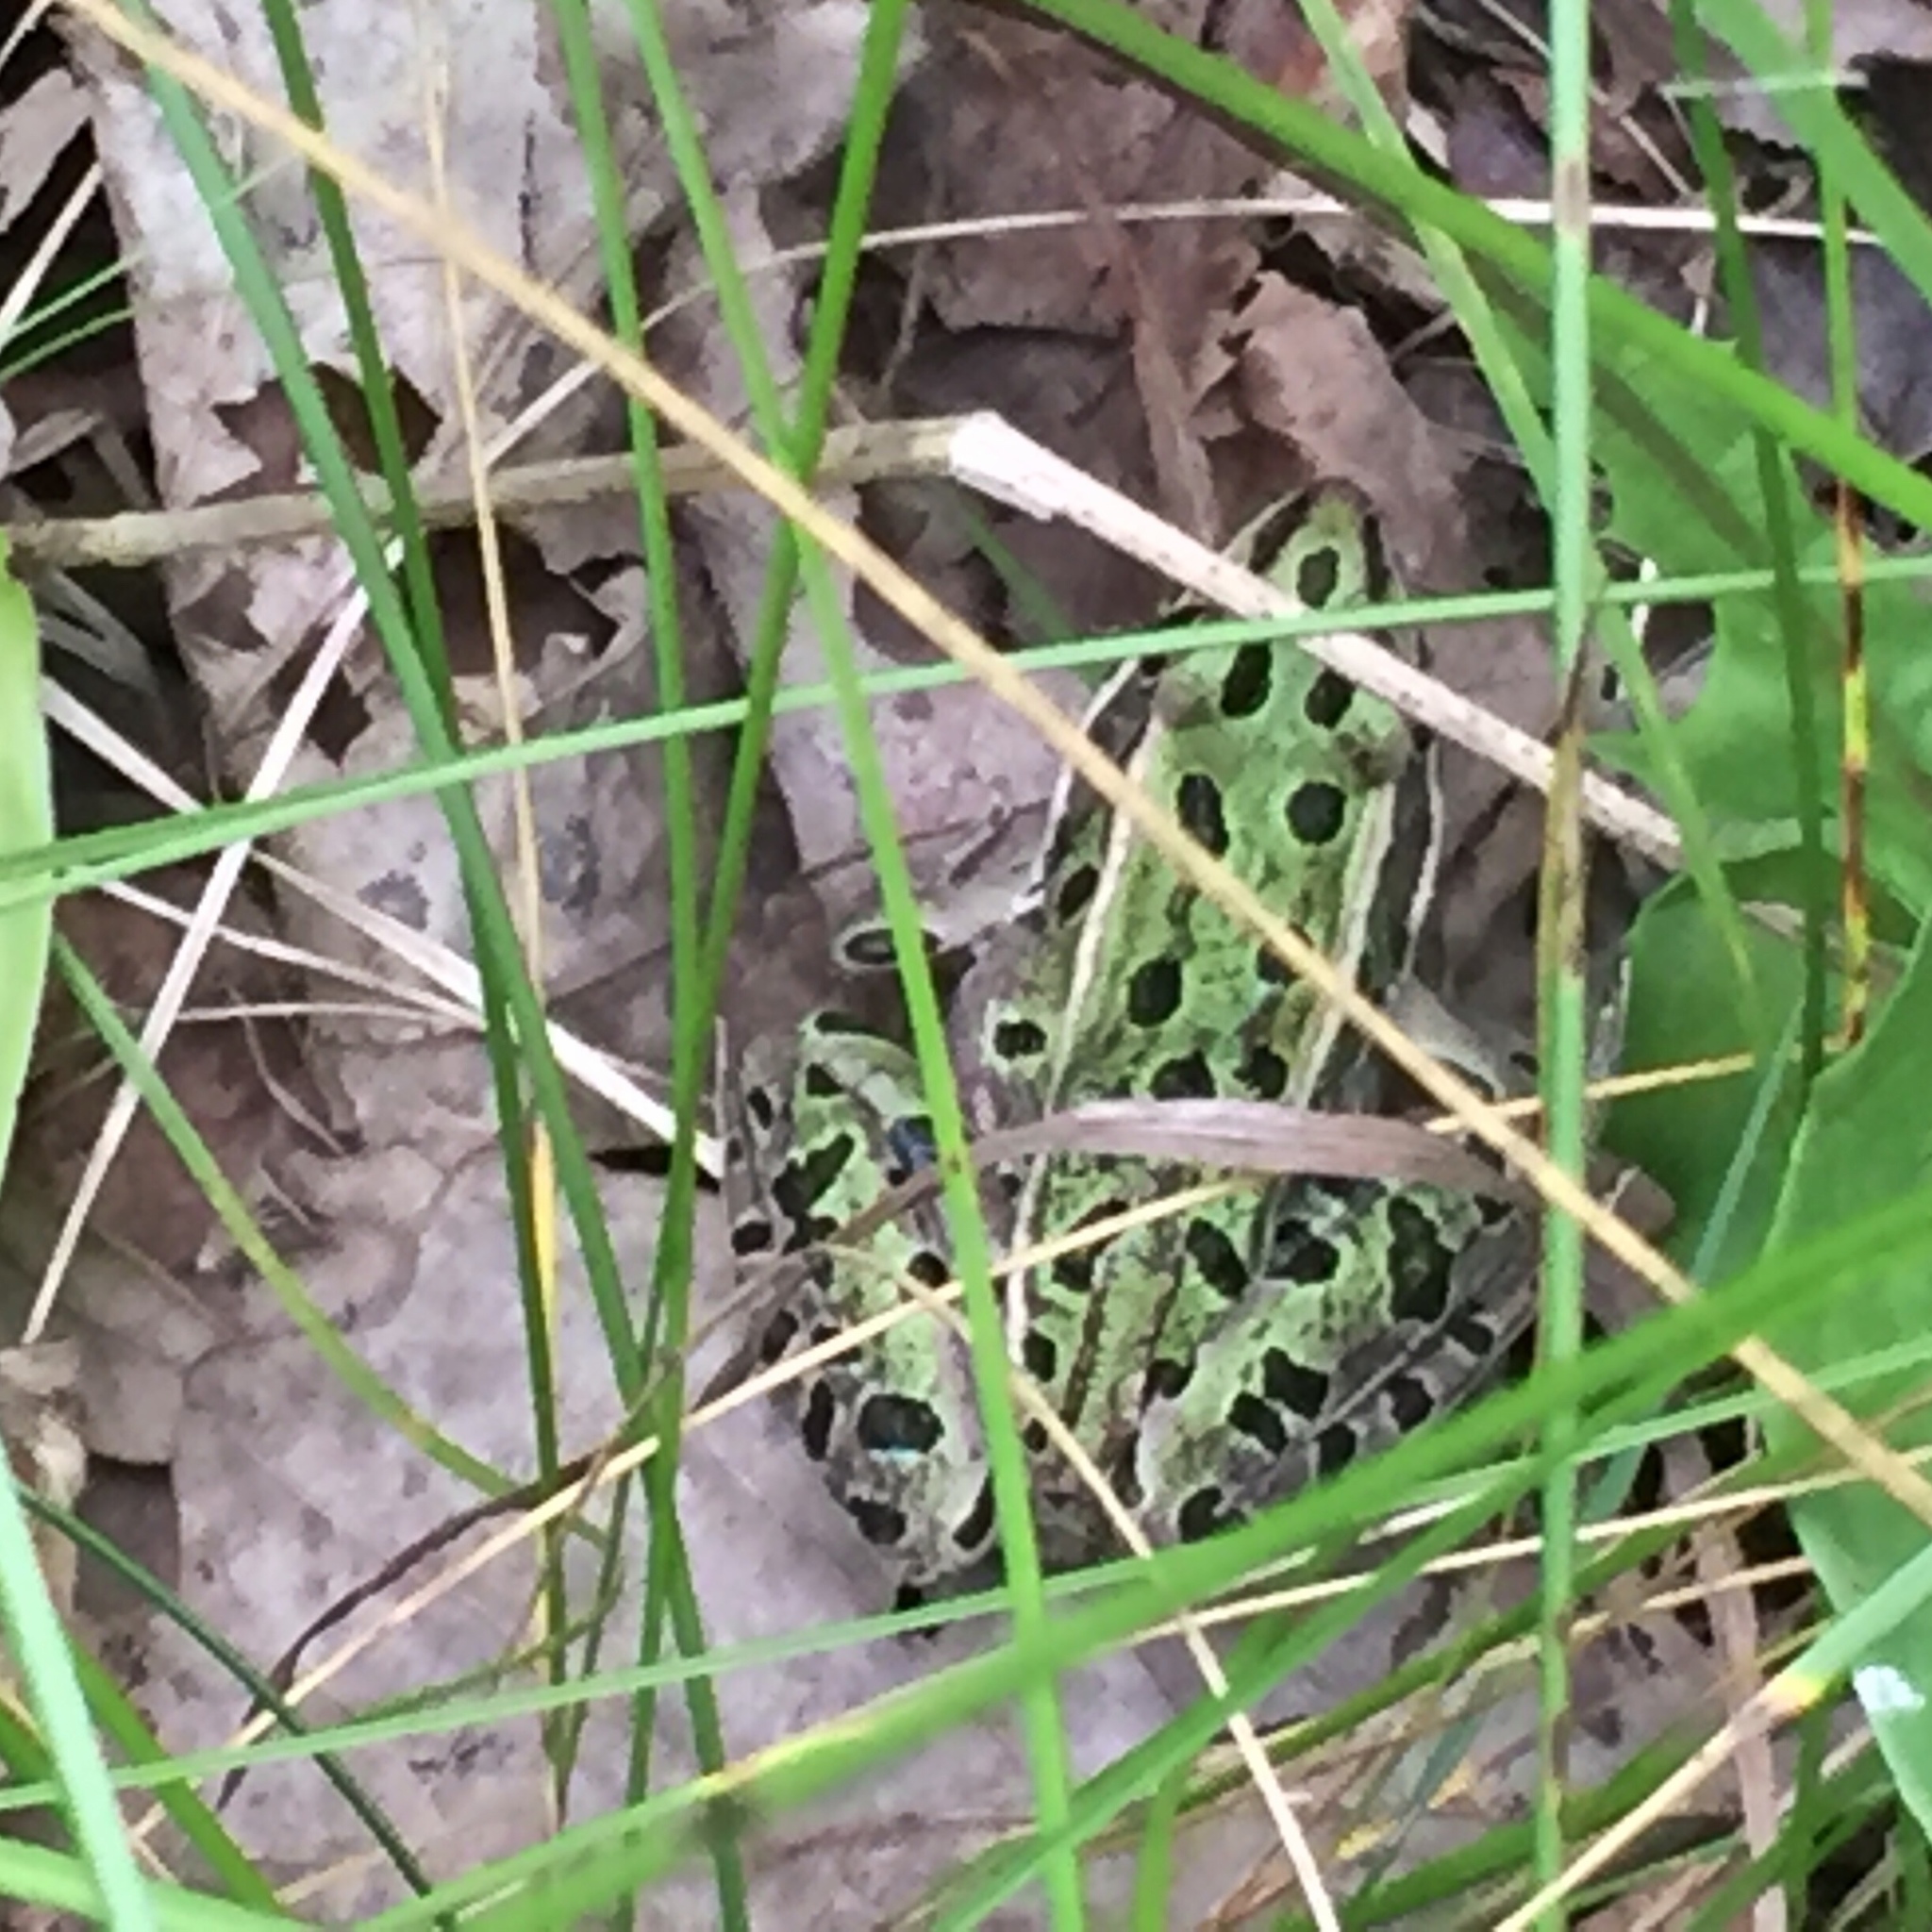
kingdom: Animalia
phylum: Chordata
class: Amphibia
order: Anura
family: Ranidae
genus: Lithobates
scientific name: Lithobates pipiens
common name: Northern leopard frog
